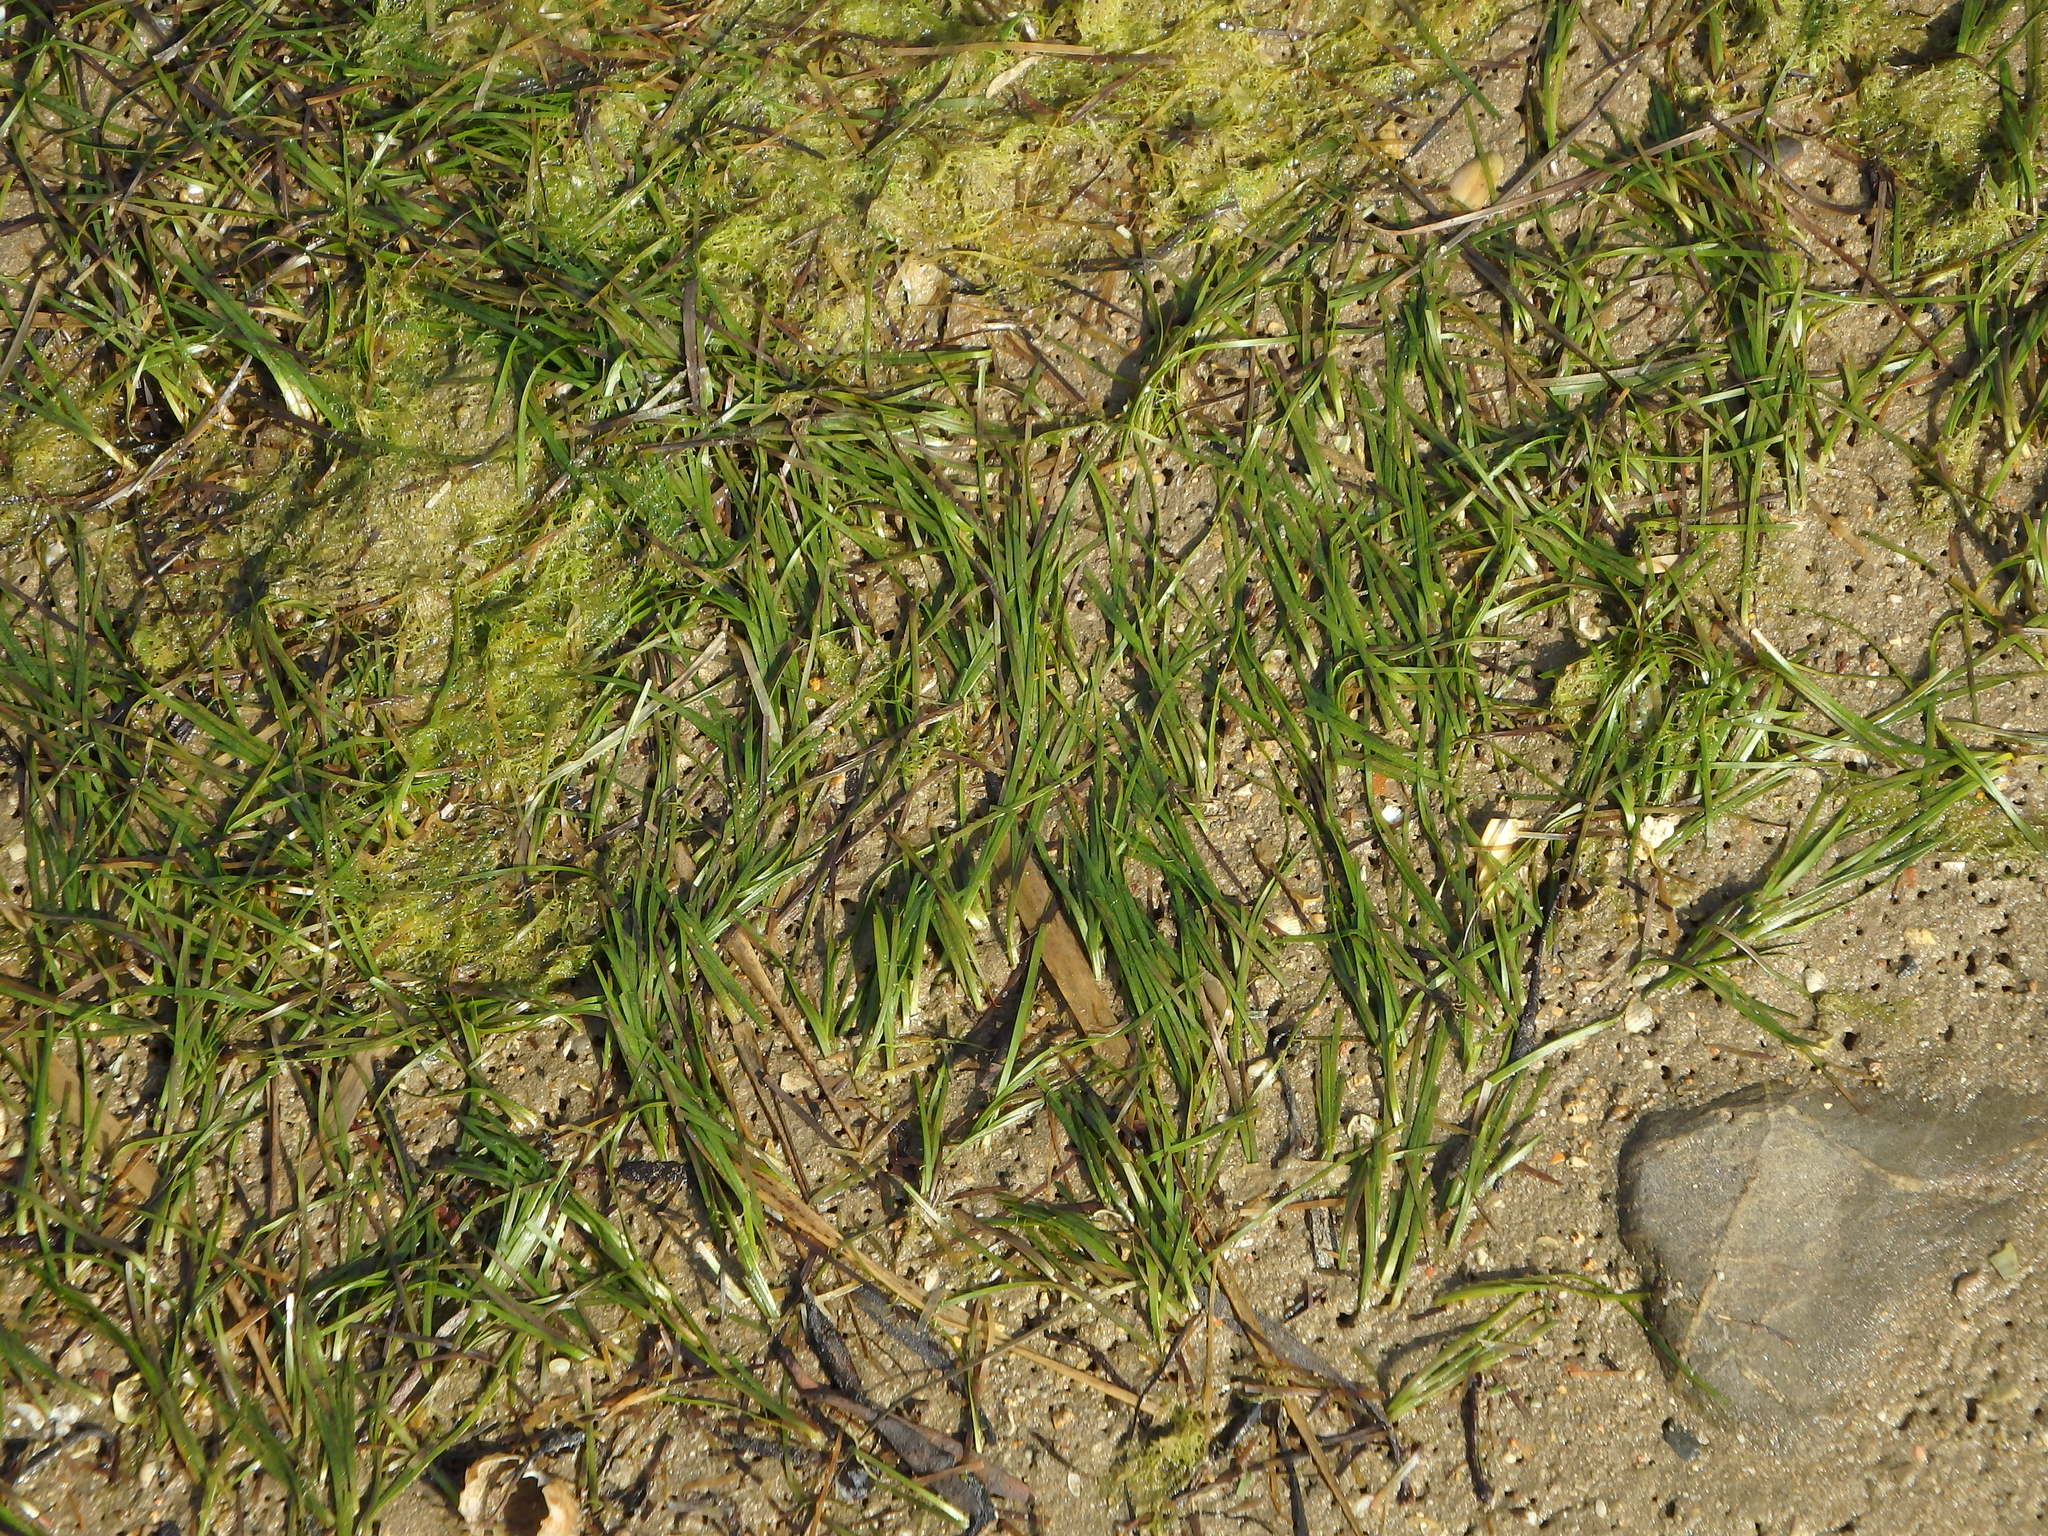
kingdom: Plantae
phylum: Tracheophyta
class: Liliopsida
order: Alismatales
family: Zosteraceae
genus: Zostera
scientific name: Zostera noltii
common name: Dwarf eelgrass
